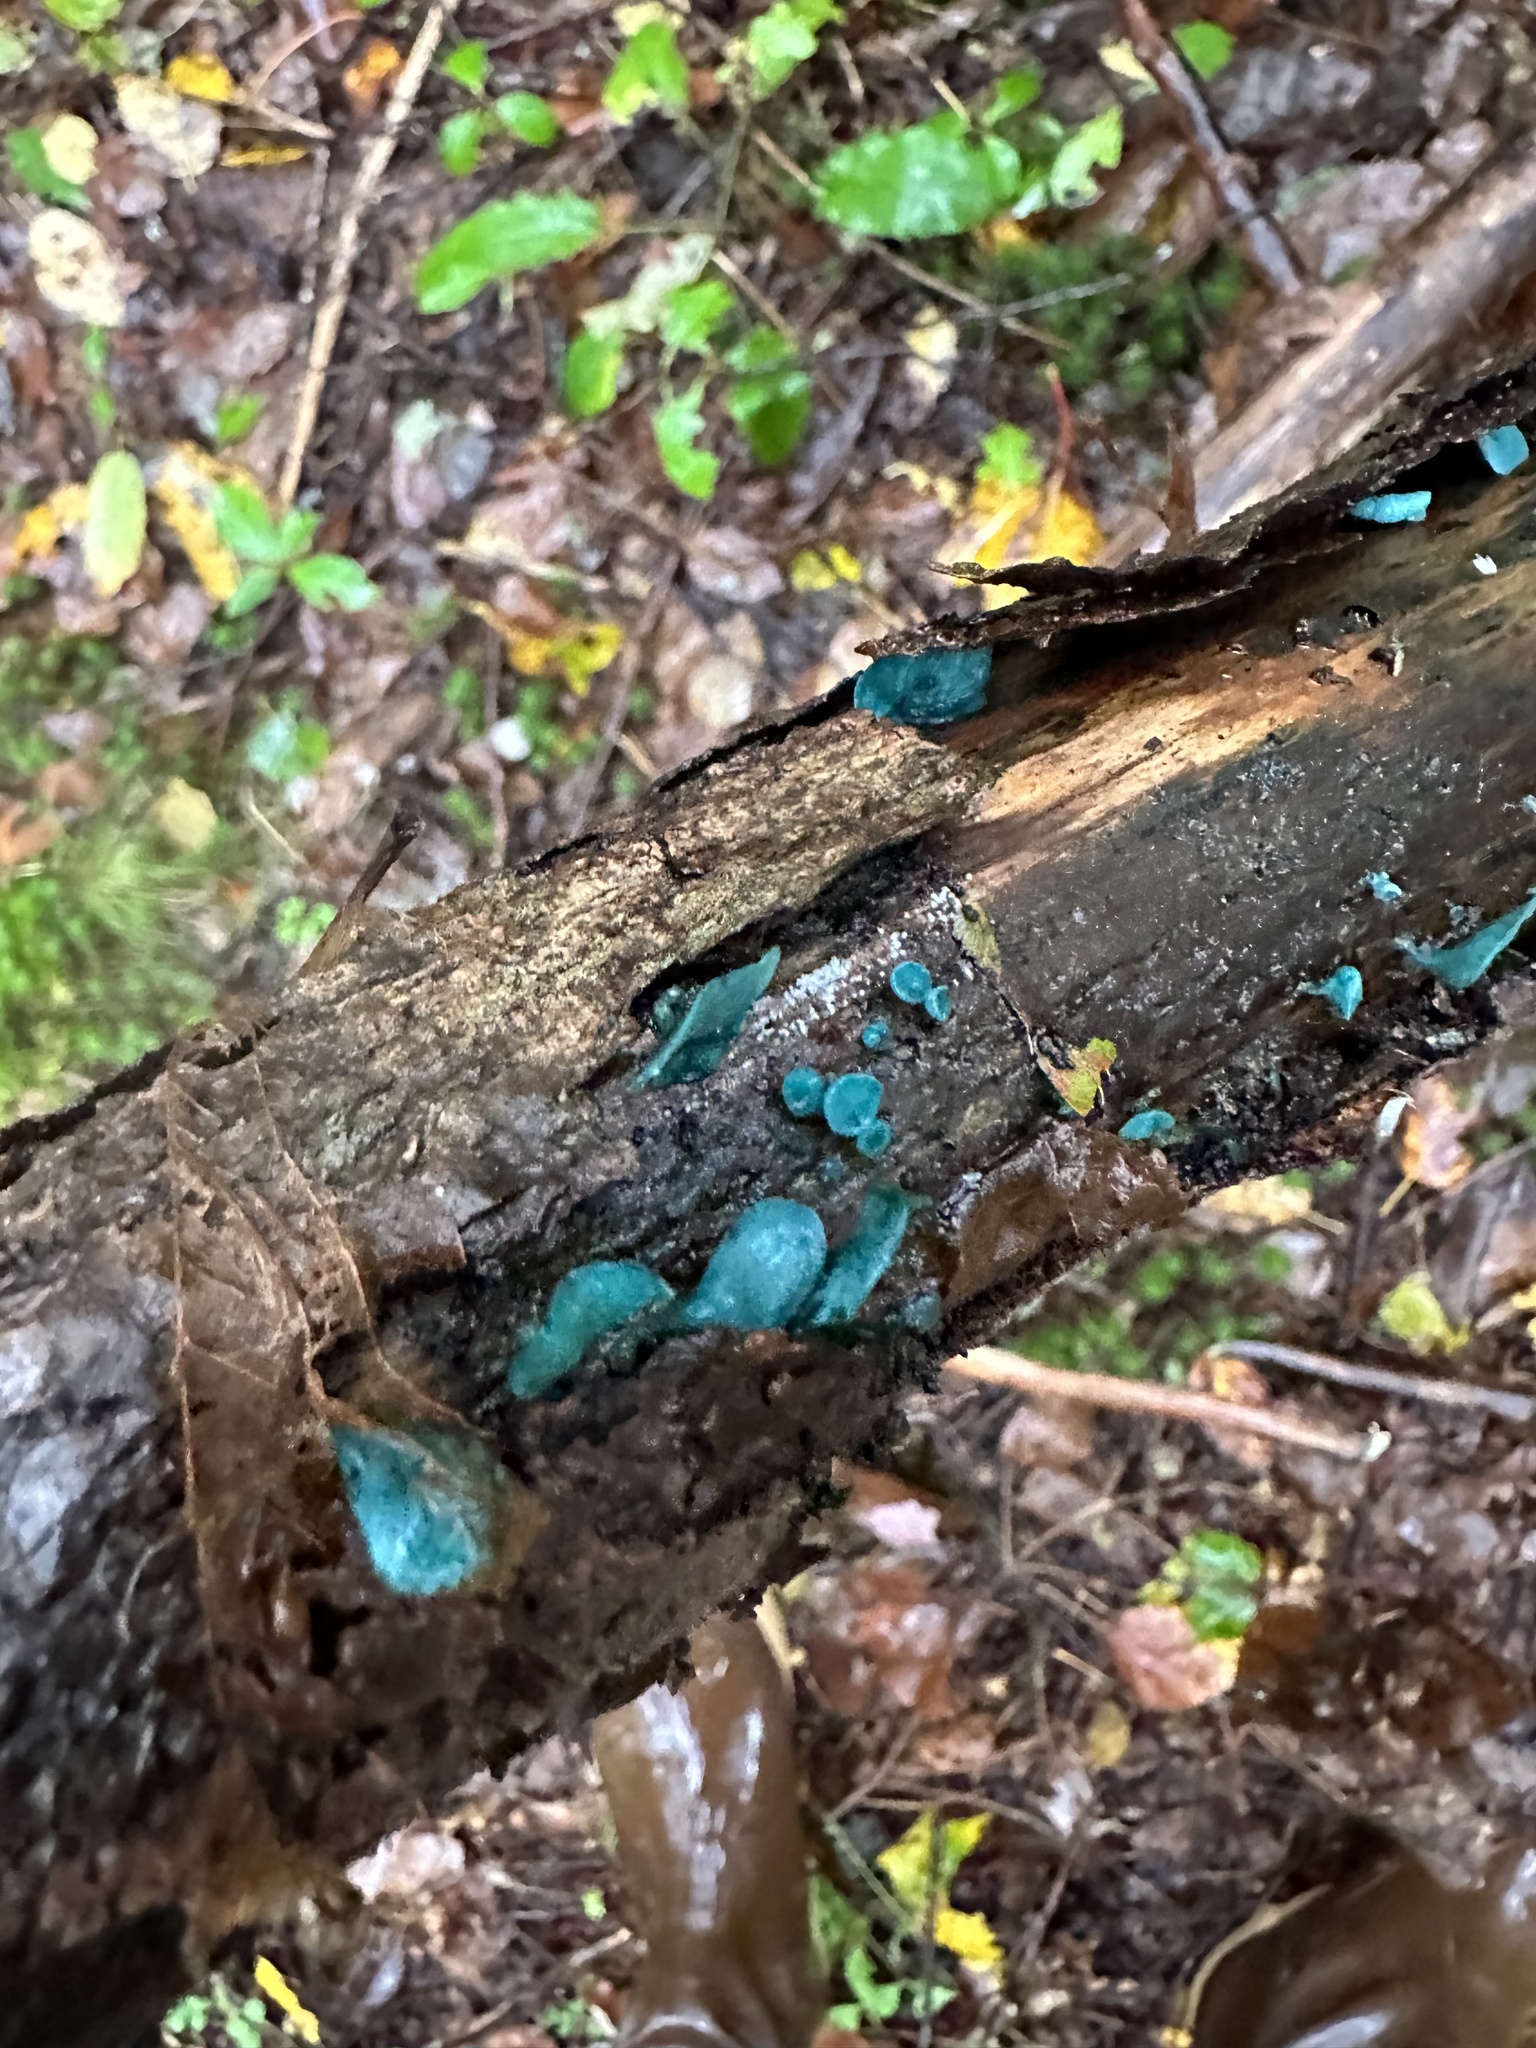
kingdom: Fungi
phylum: Ascomycota
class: Leotiomycetes
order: Helotiales
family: Chlorociboriaceae
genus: Chlorociboria
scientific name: Chlorociboria aeruginascens
